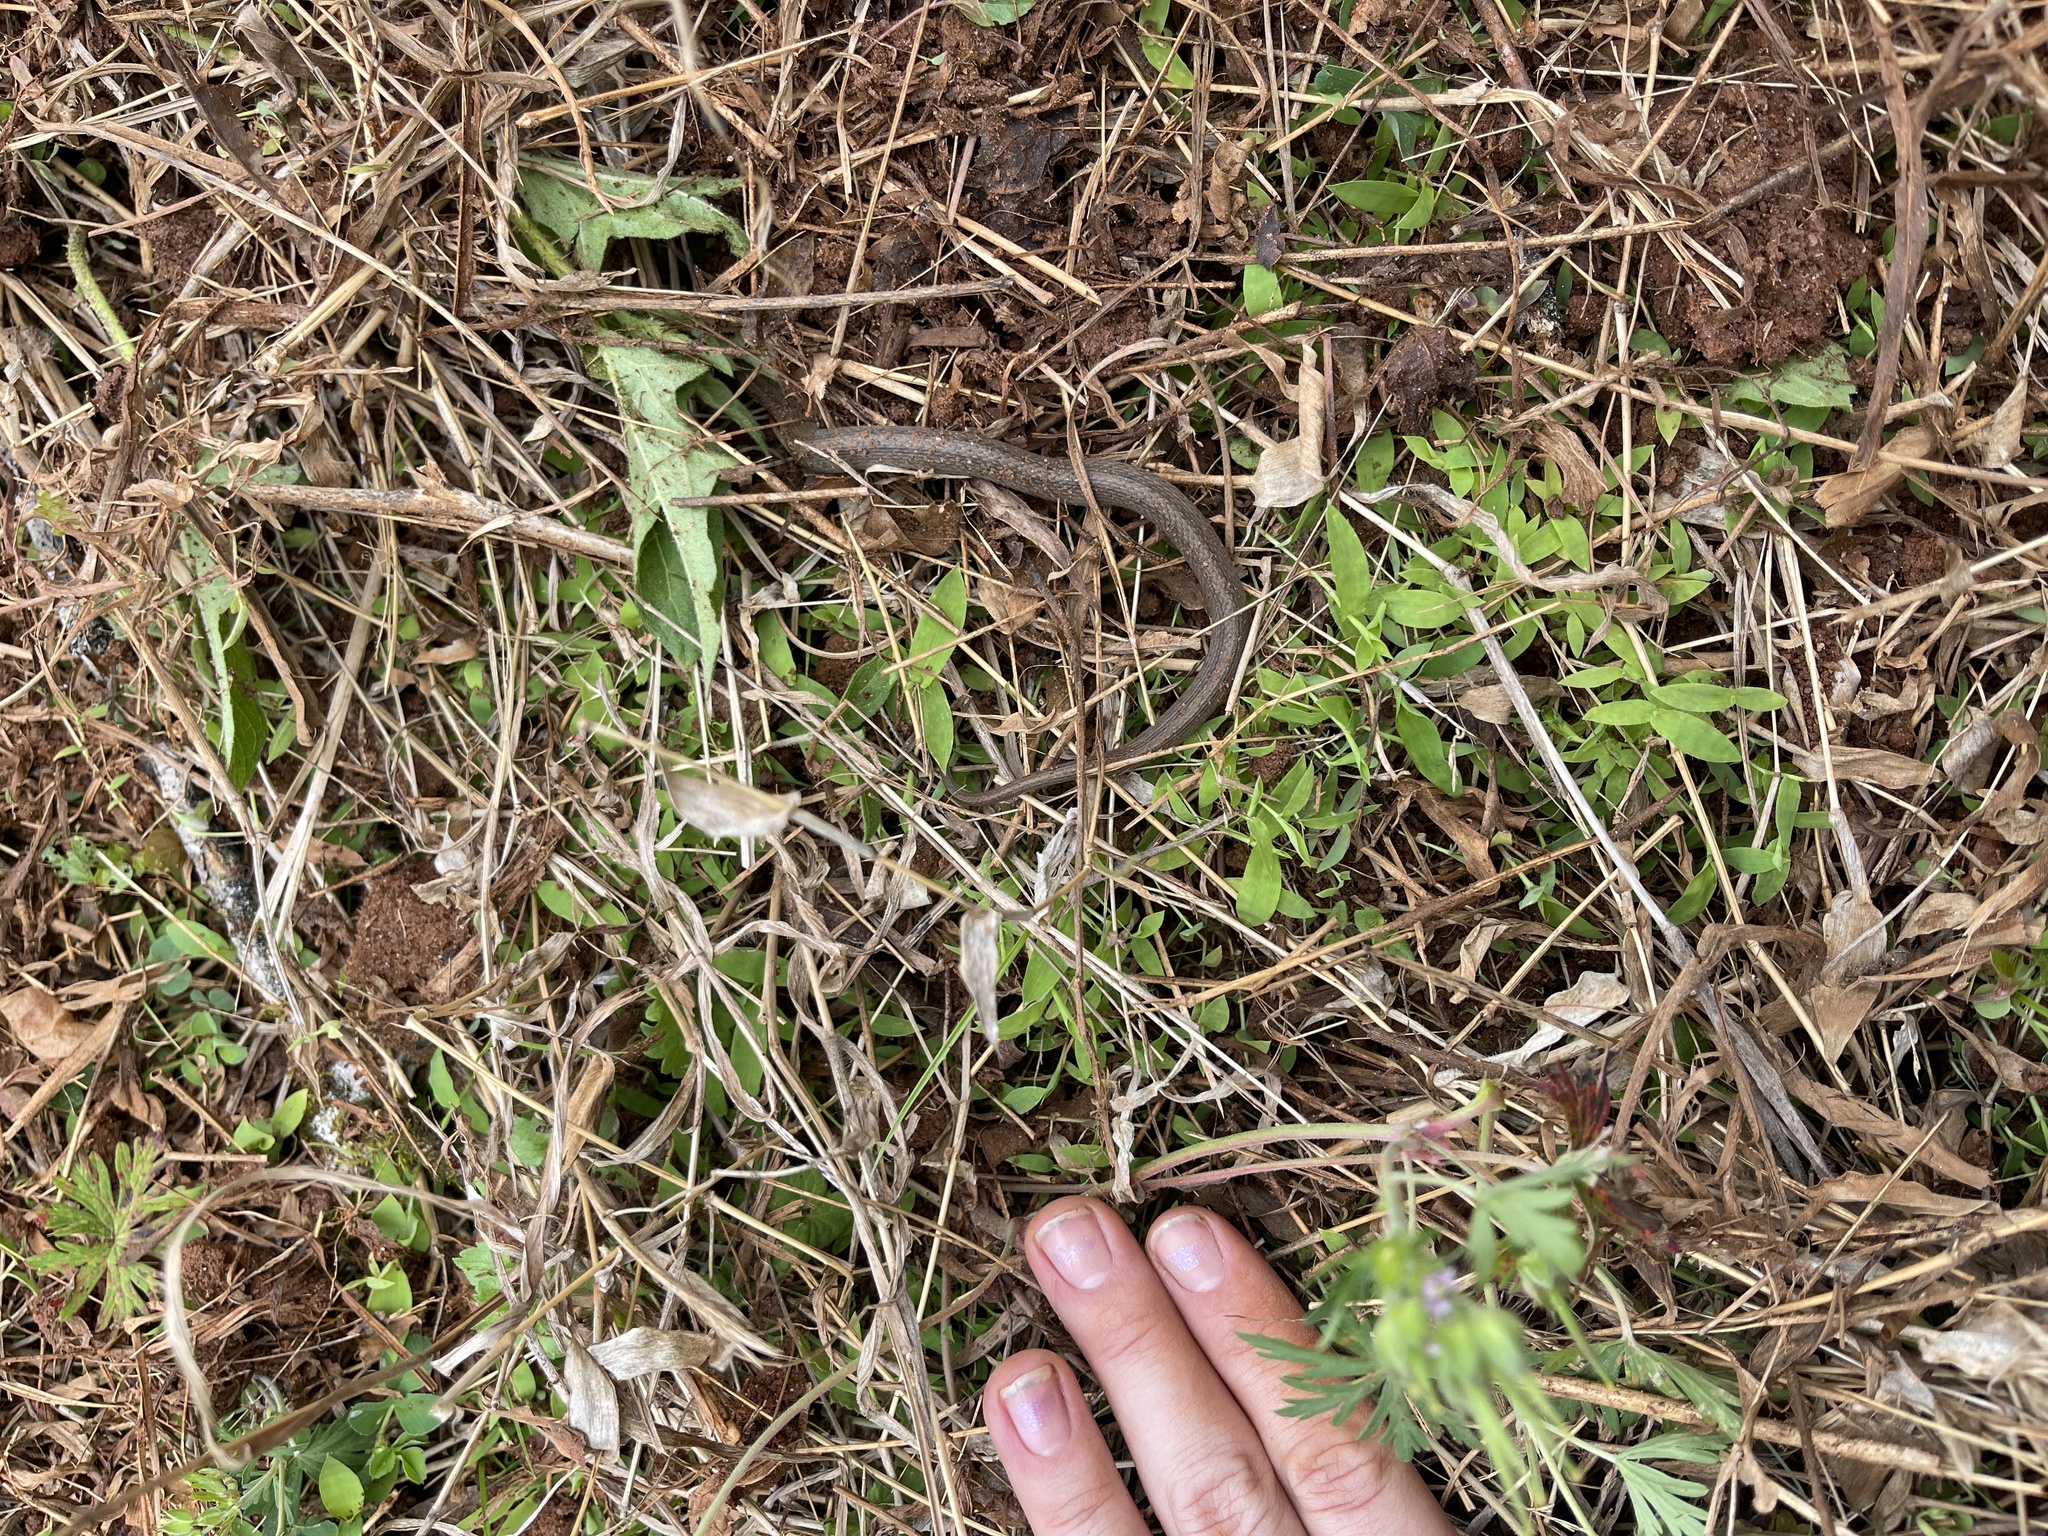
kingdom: Animalia
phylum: Chordata
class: Squamata
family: Colubridae
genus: Storeria
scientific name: Storeria dekayi
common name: (dekay’s) brown snake
